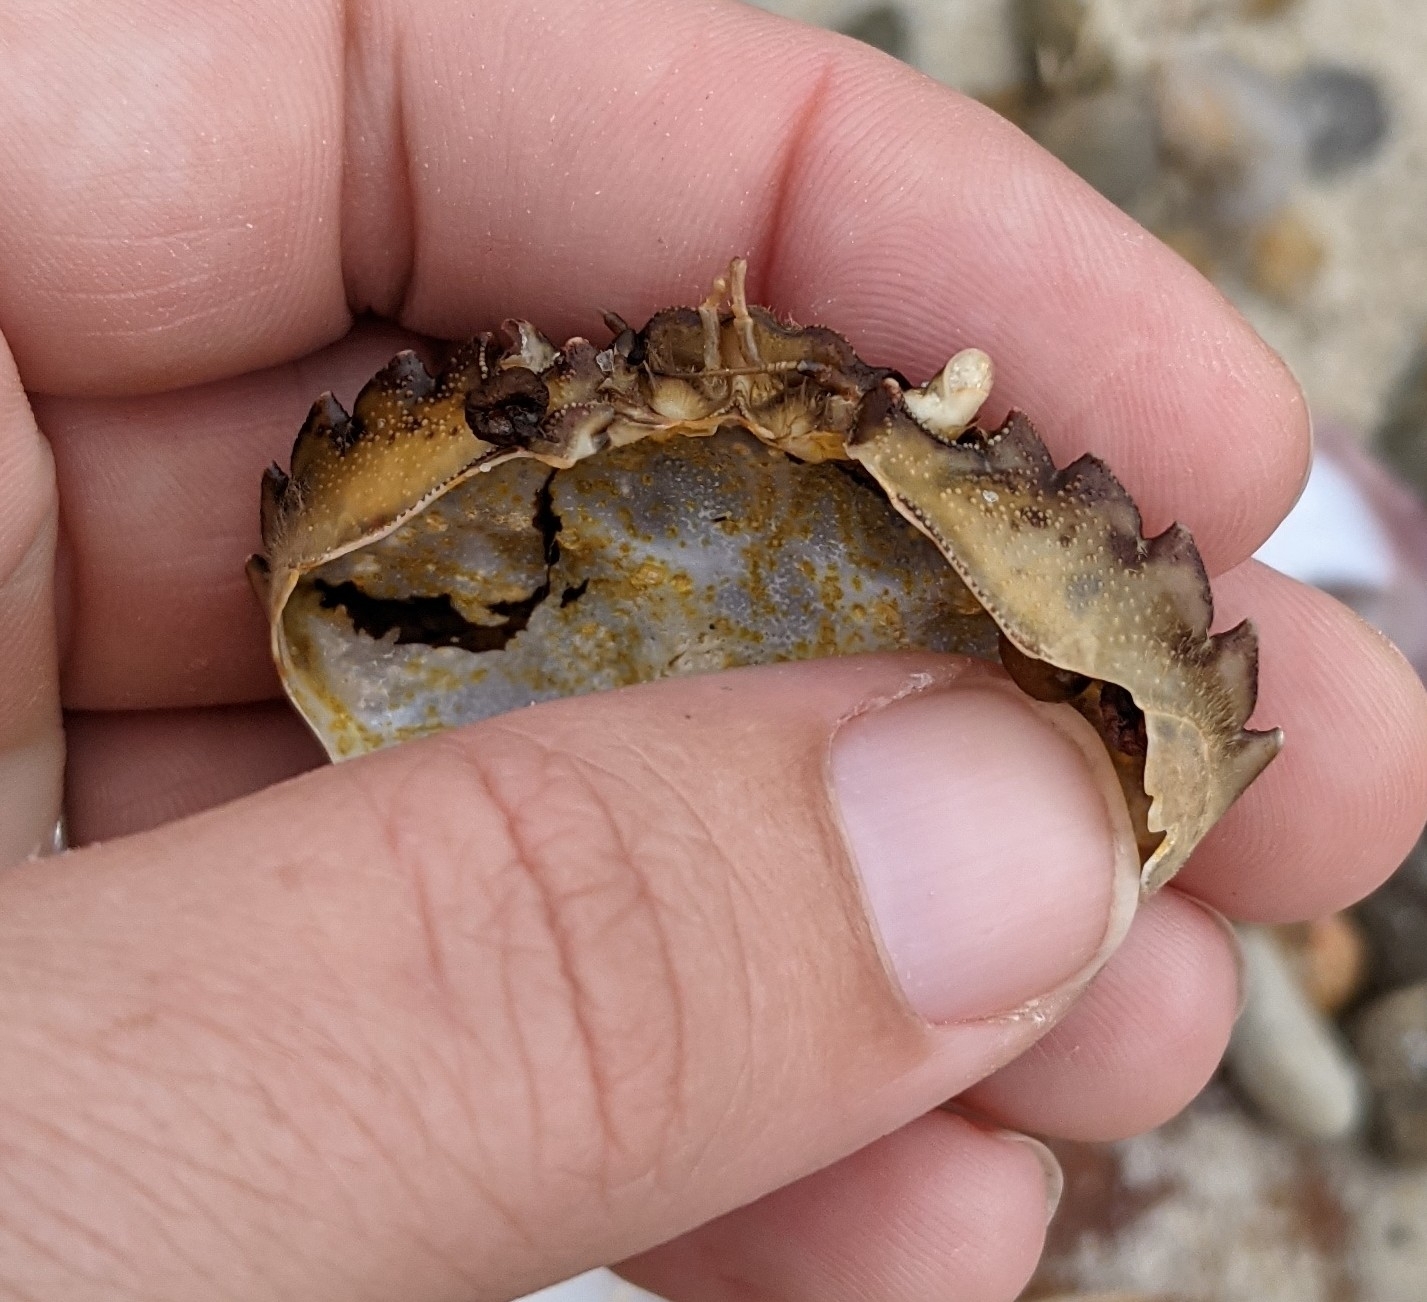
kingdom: Animalia
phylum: Arthropoda
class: Malacostraca
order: Decapoda
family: Carcinidae
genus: Carcinus
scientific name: Carcinus maenas
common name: European green crab
